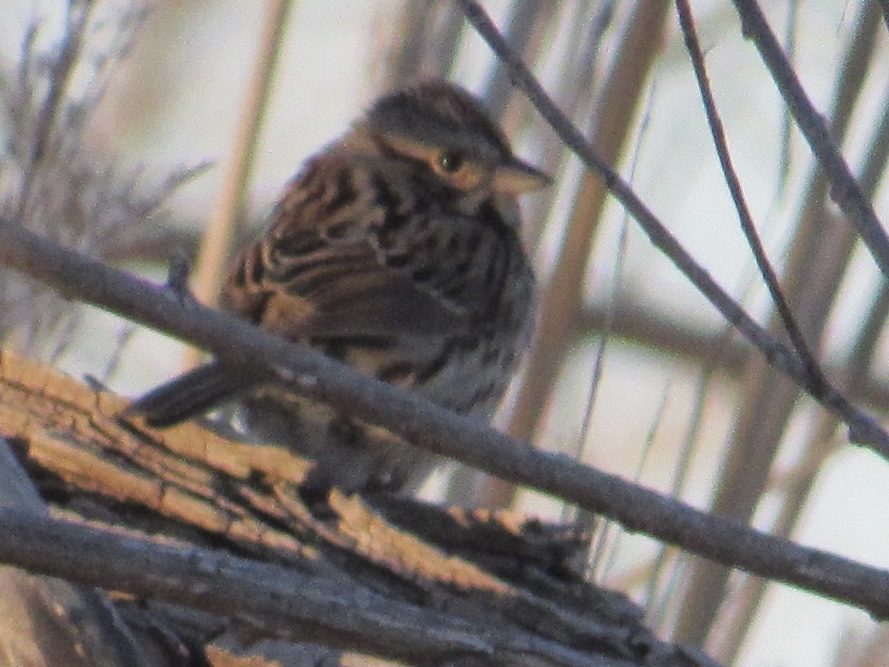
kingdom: Animalia
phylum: Chordata
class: Aves
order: Passeriformes
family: Passerellidae
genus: Melospiza
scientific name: Melospiza melodia
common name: Song sparrow
